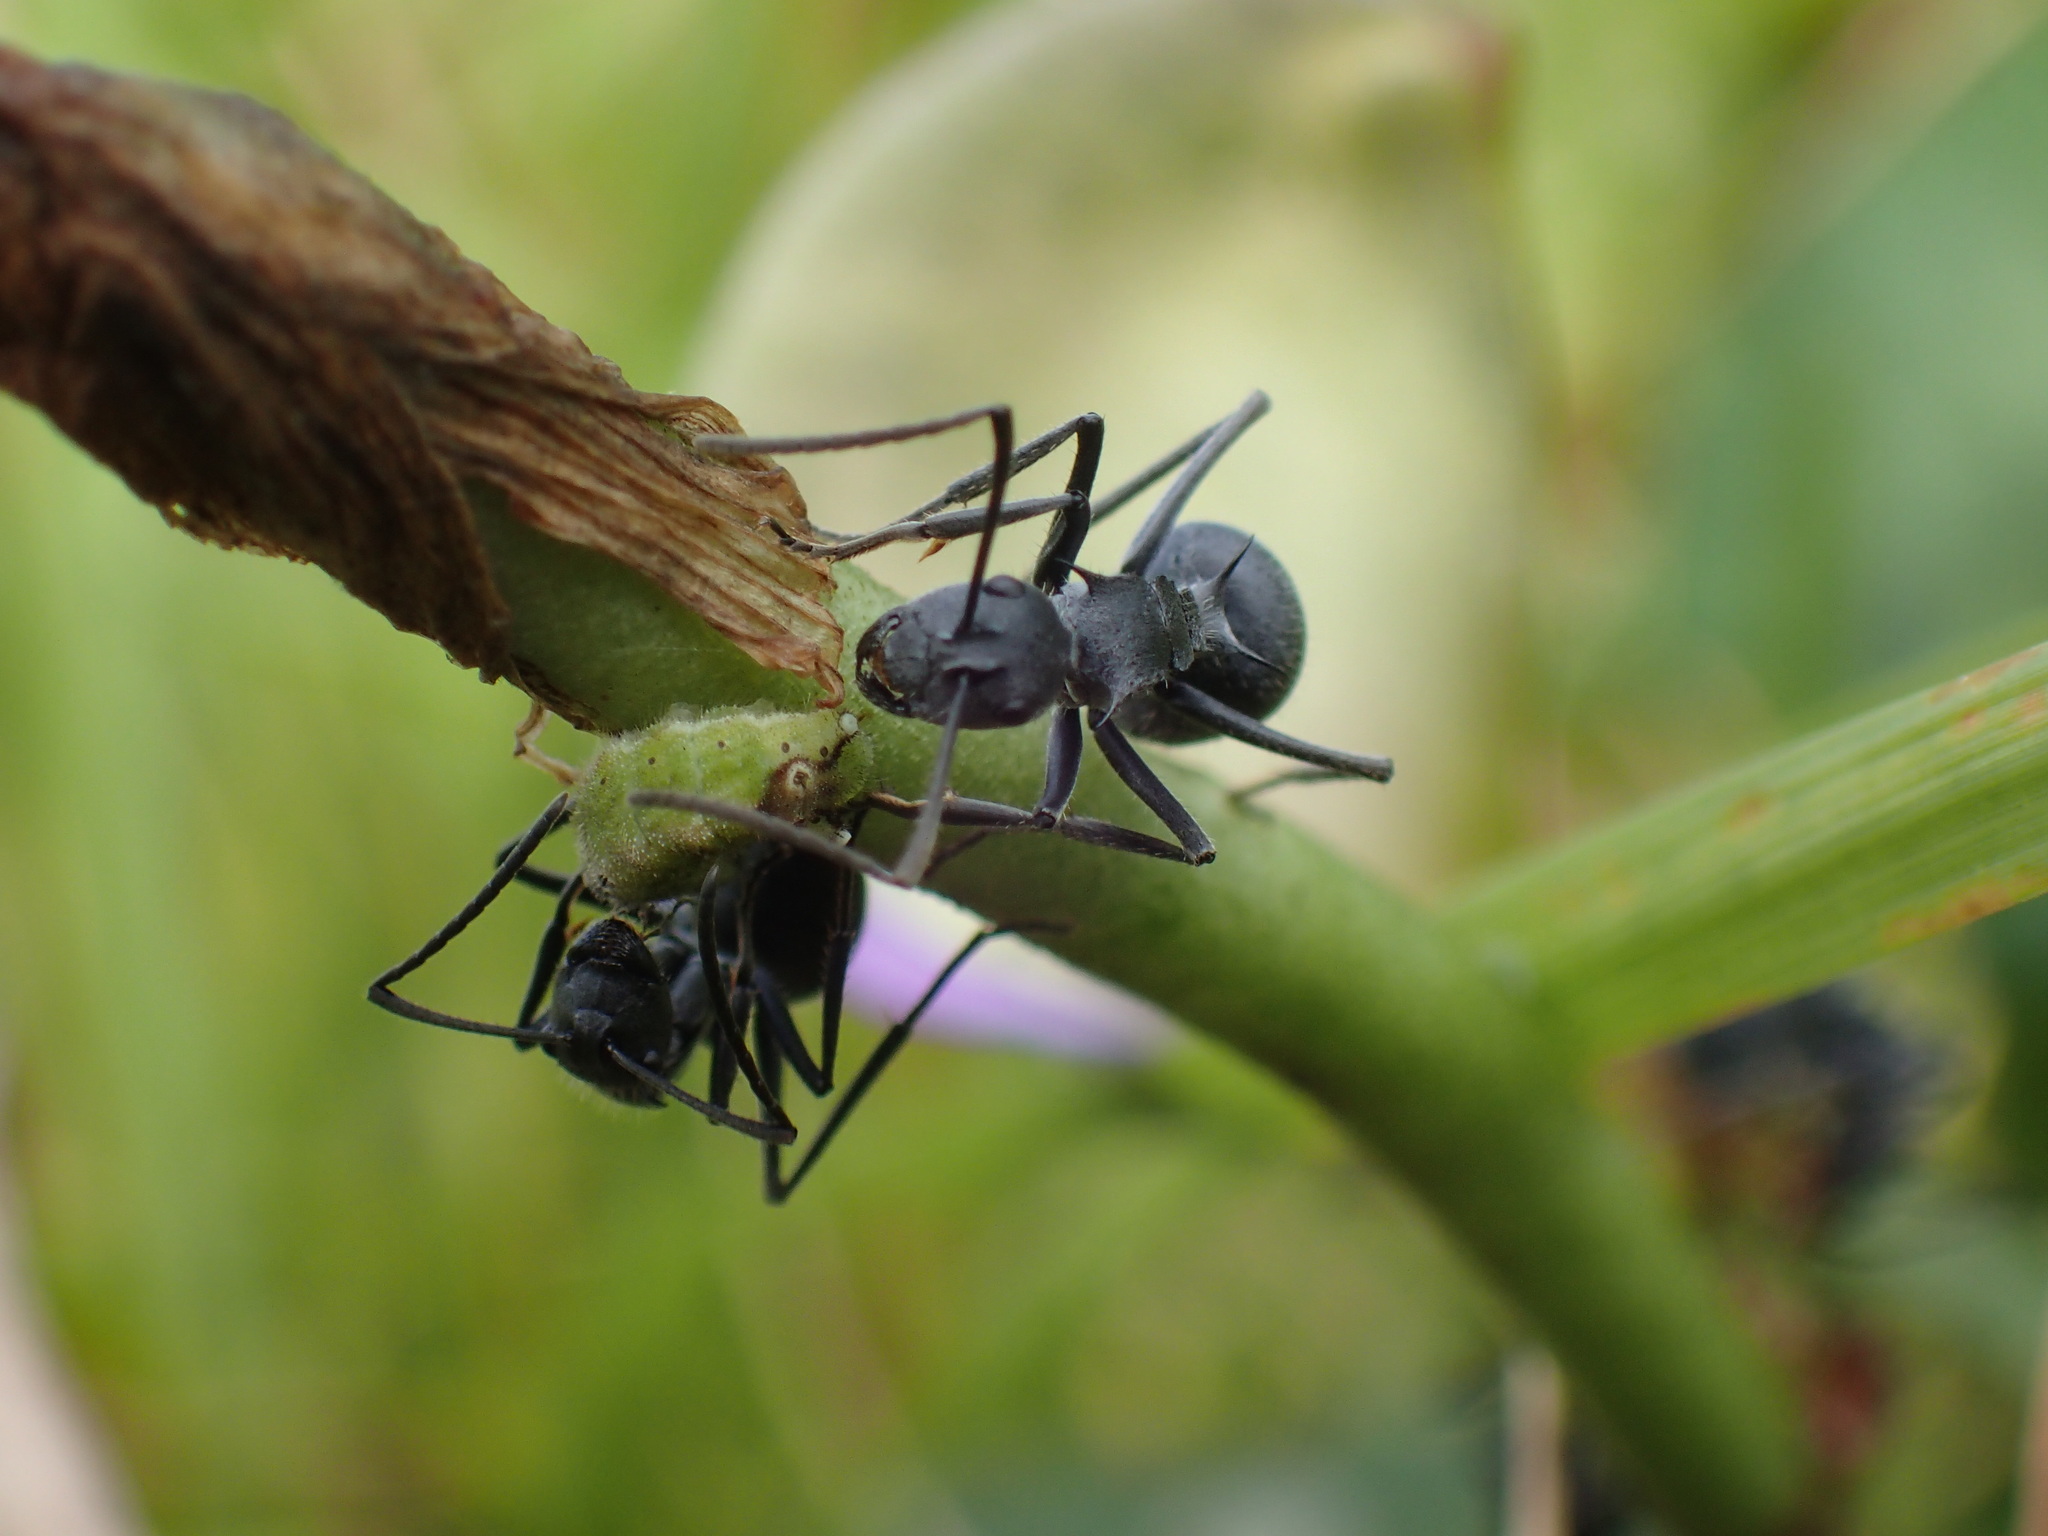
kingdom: Animalia
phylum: Arthropoda
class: Insecta
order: Lepidoptera
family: Lycaenidae
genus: Euchrysops
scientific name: Euchrysops malathana
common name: Common smoky blue
